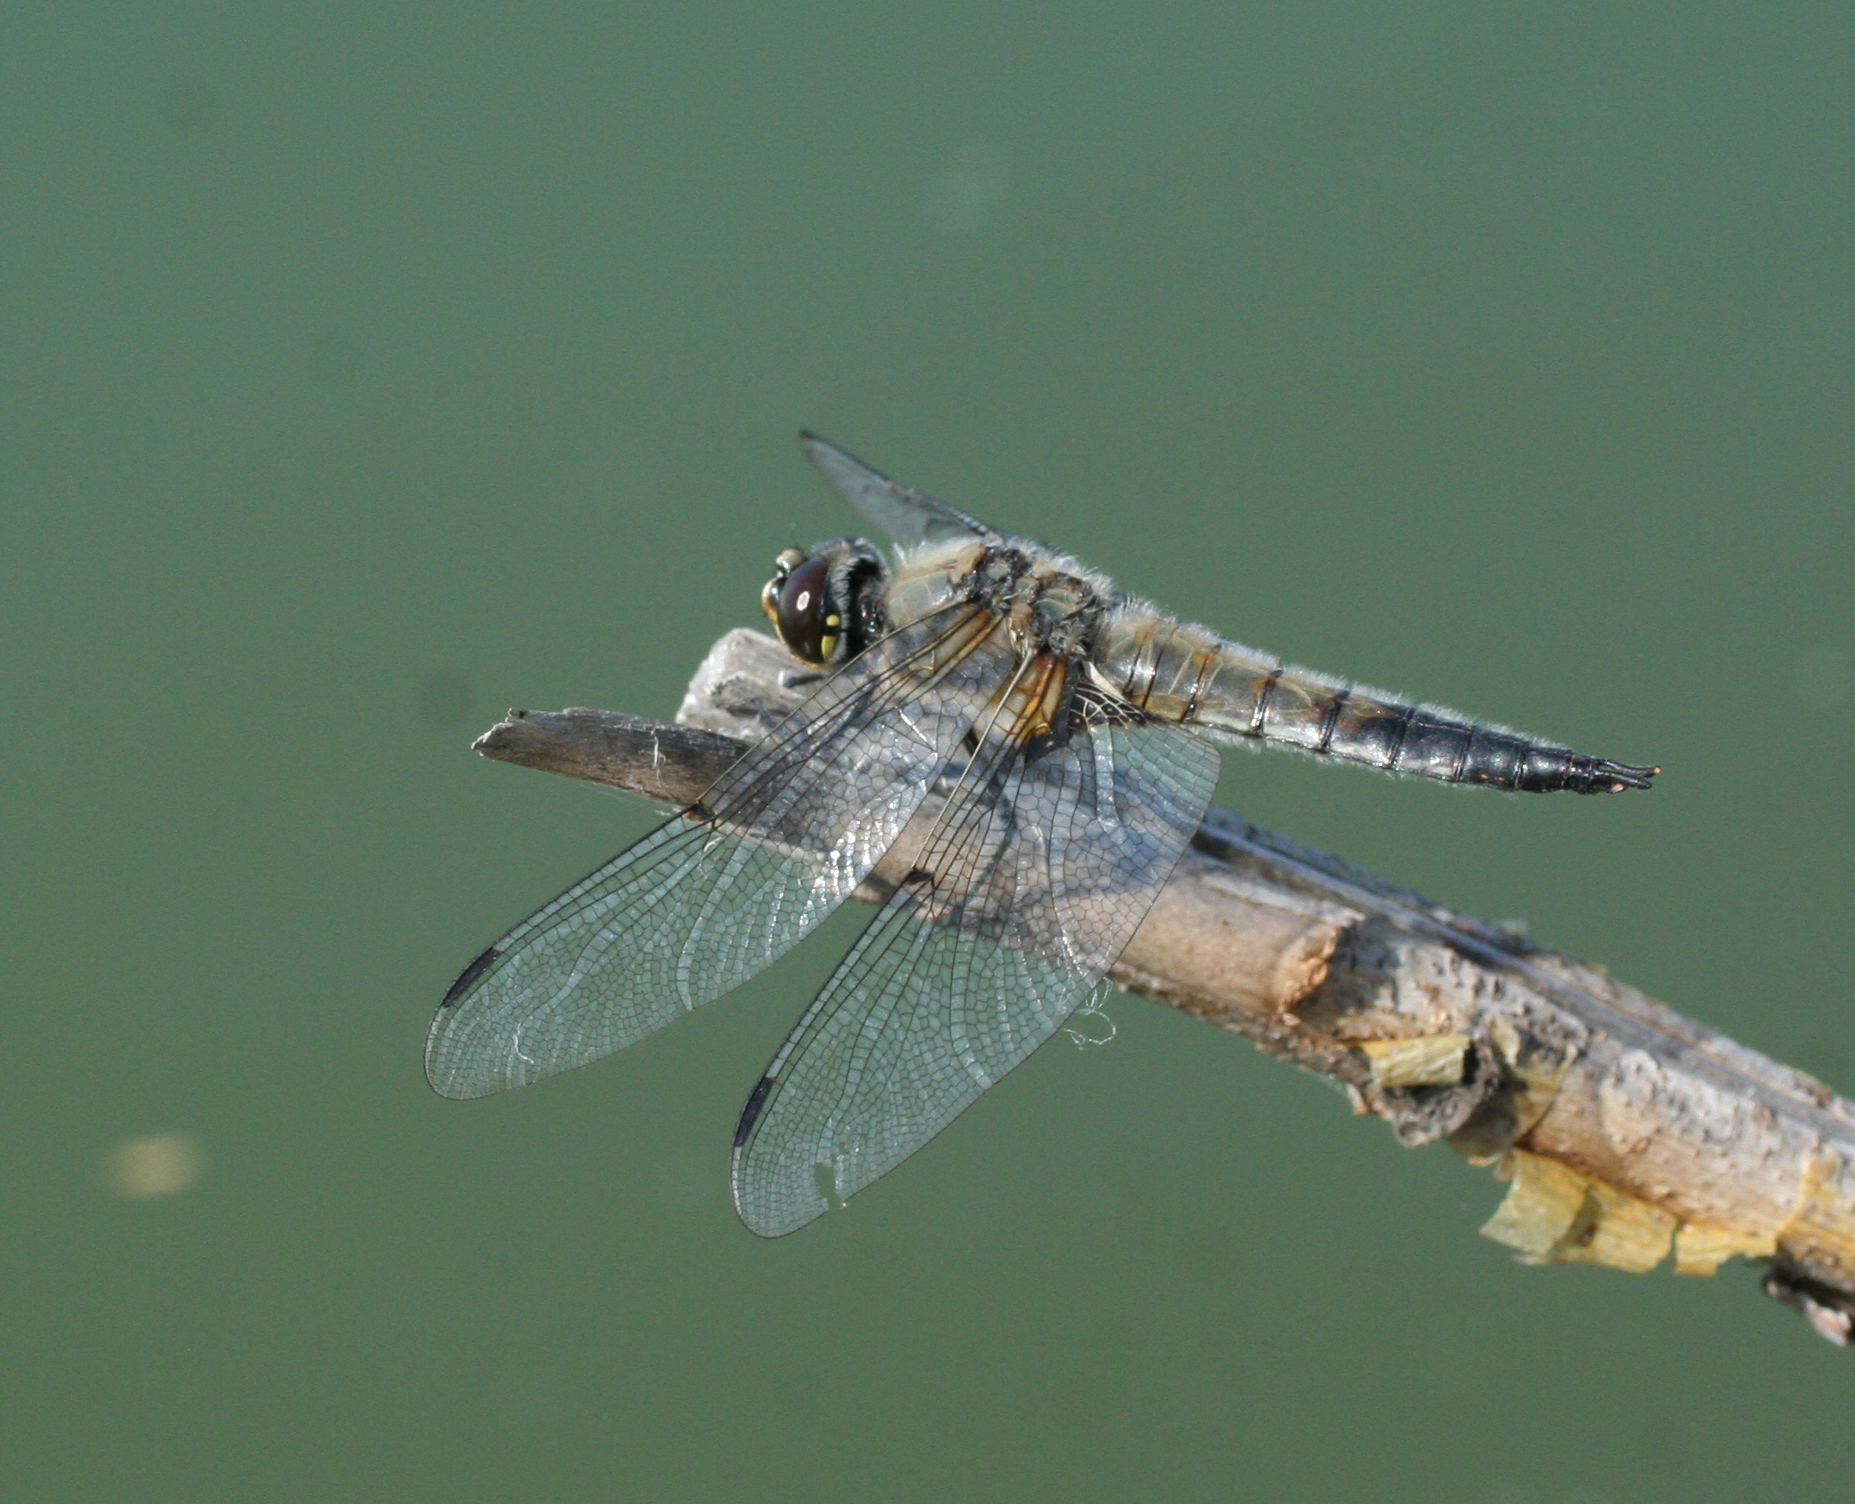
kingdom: Animalia
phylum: Arthropoda
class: Insecta
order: Odonata
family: Libellulidae
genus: Libellula
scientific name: Libellula quadrimaculata
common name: Four-spotted chaser
